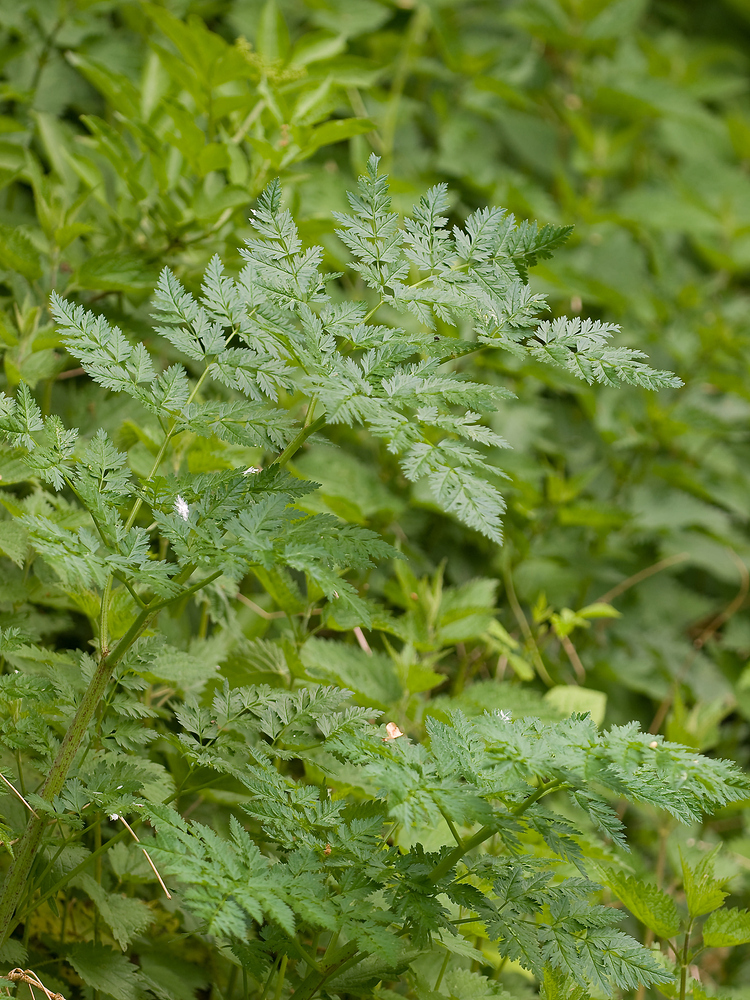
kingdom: Plantae
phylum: Tracheophyta
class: Magnoliopsida
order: Apiales
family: Apiaceae
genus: Conium
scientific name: Conium maculatum
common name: Hemlock
